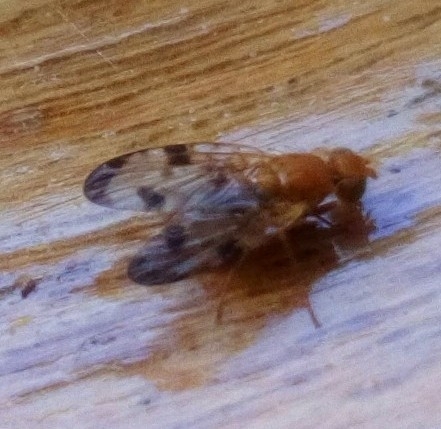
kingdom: Animalia
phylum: Arthropoda
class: Insecta
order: Diptera
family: Tephritidae
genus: Xyphosia
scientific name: Xyphosia miliaria
